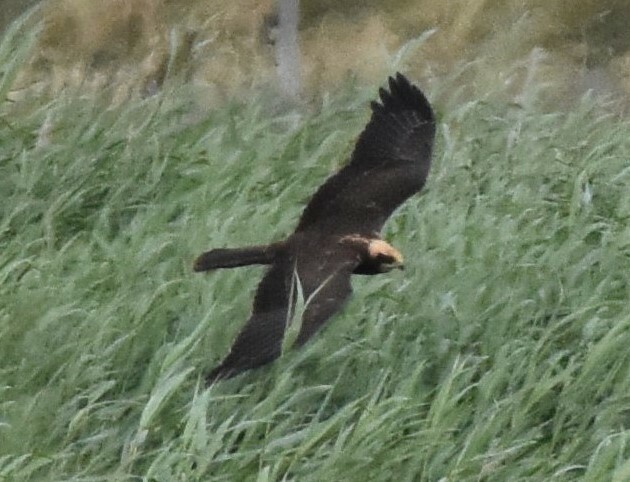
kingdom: Animalia
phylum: Chordata
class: Aves
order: Accipitriformes
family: Accipitridae
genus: Circus
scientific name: Circus aeruginosus
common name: Western marsh harrier
